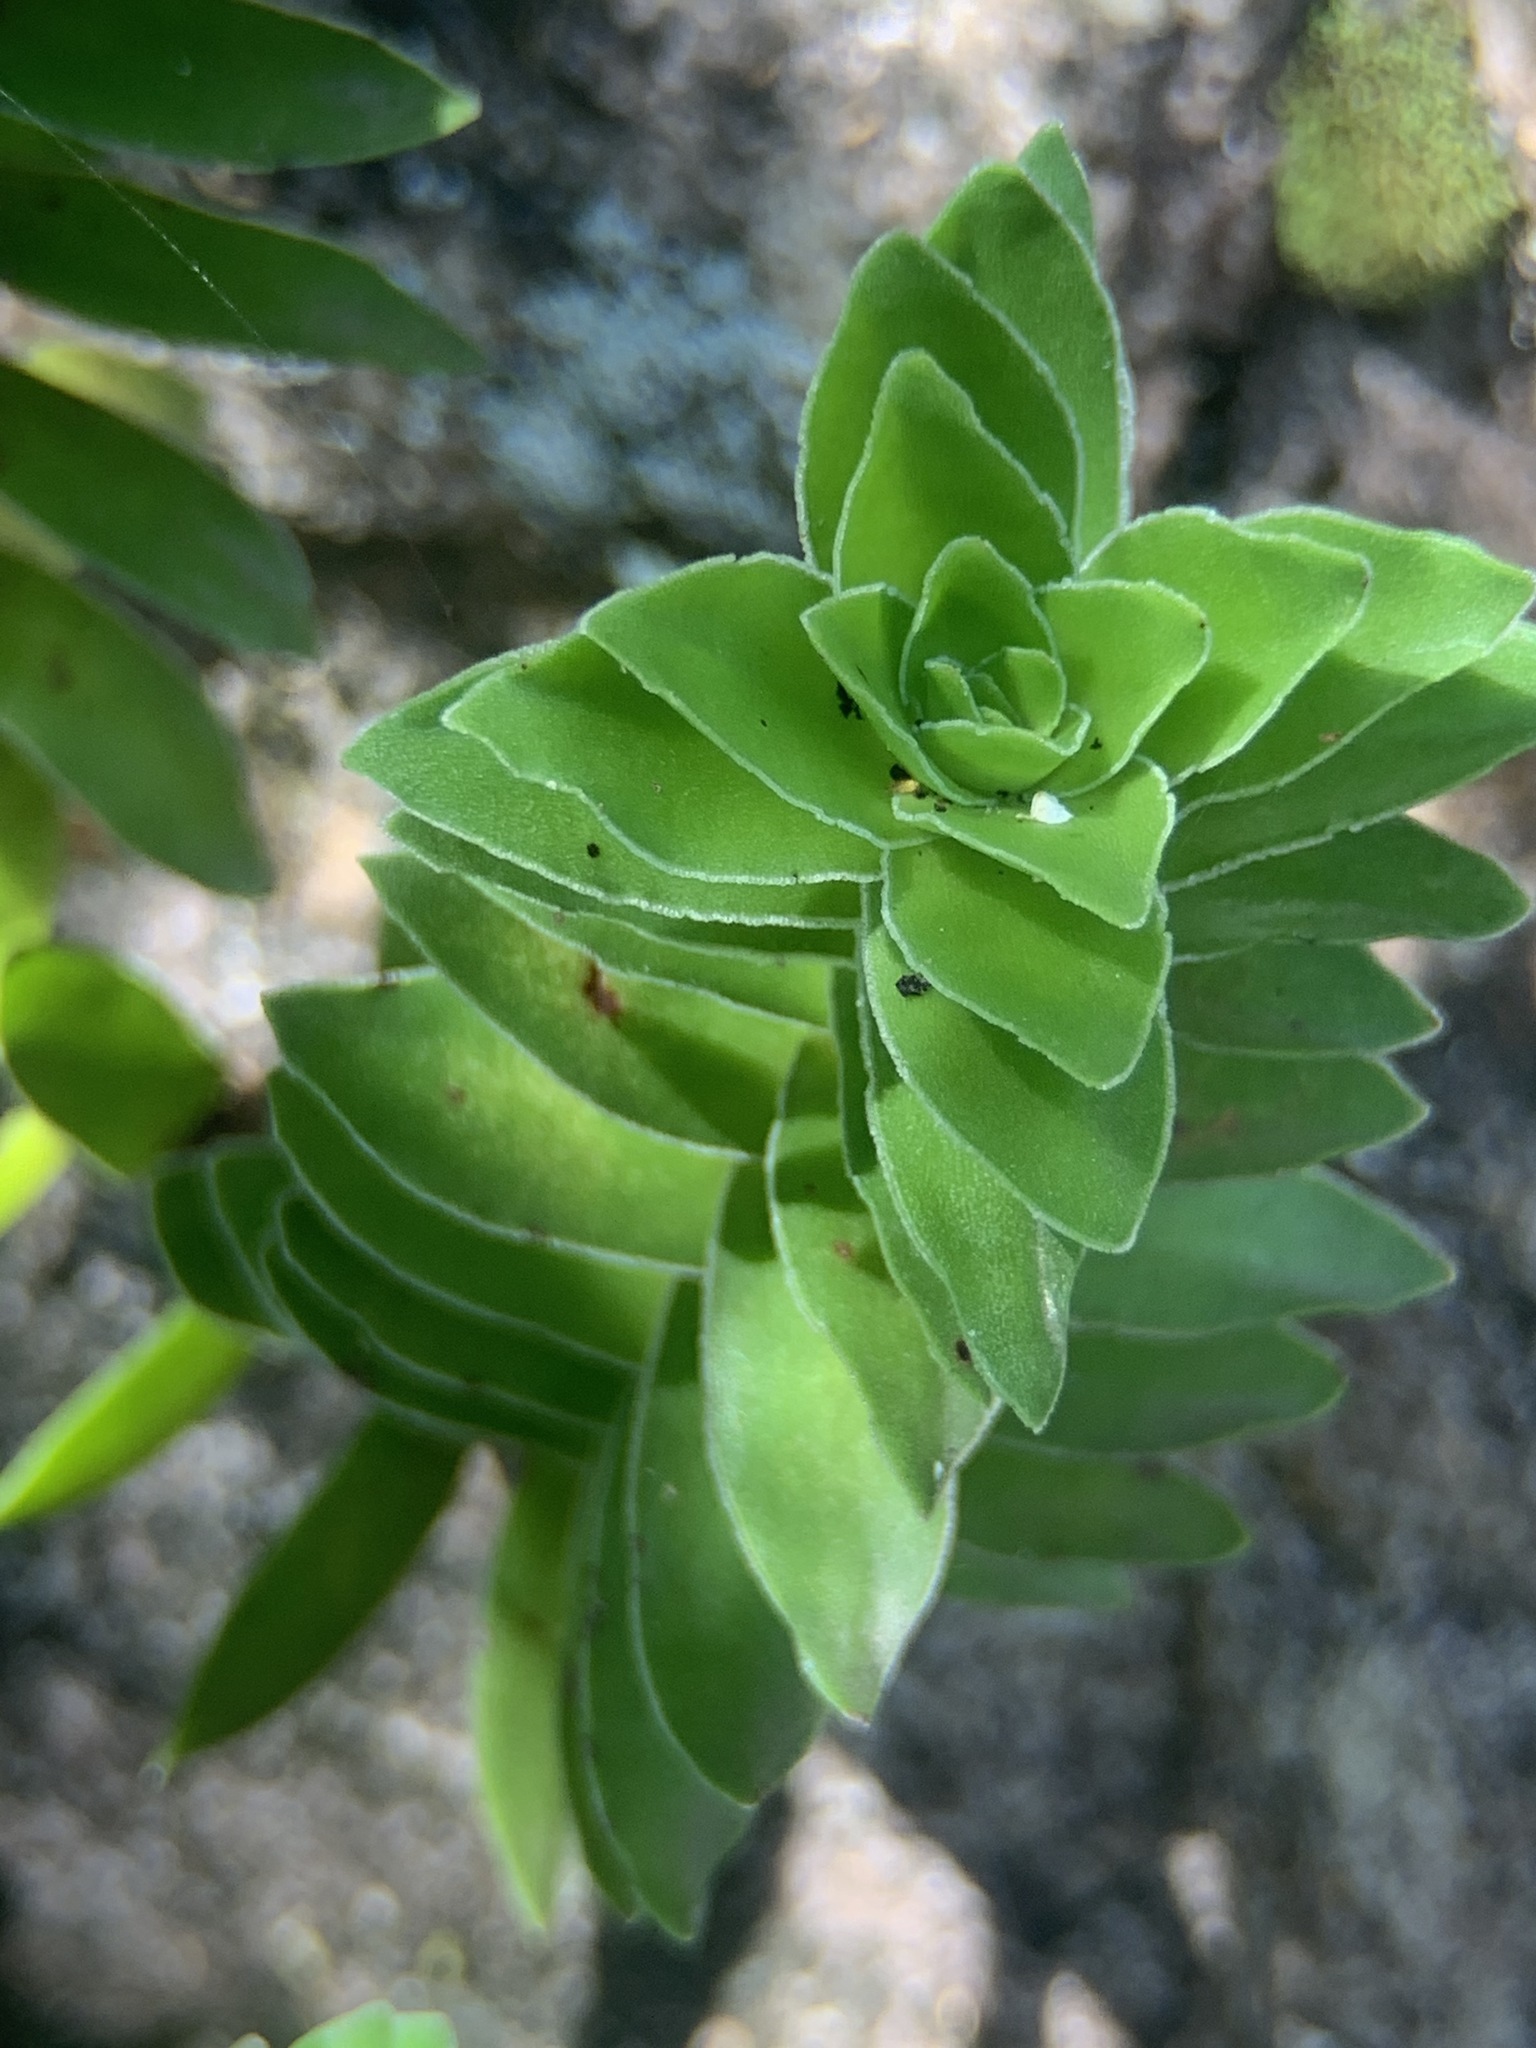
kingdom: Plantae
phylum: Tracheophyta
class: Magnoliopsida
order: Saxifragales
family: Crassulaceae
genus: Crassula
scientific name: Crassula coccinea
